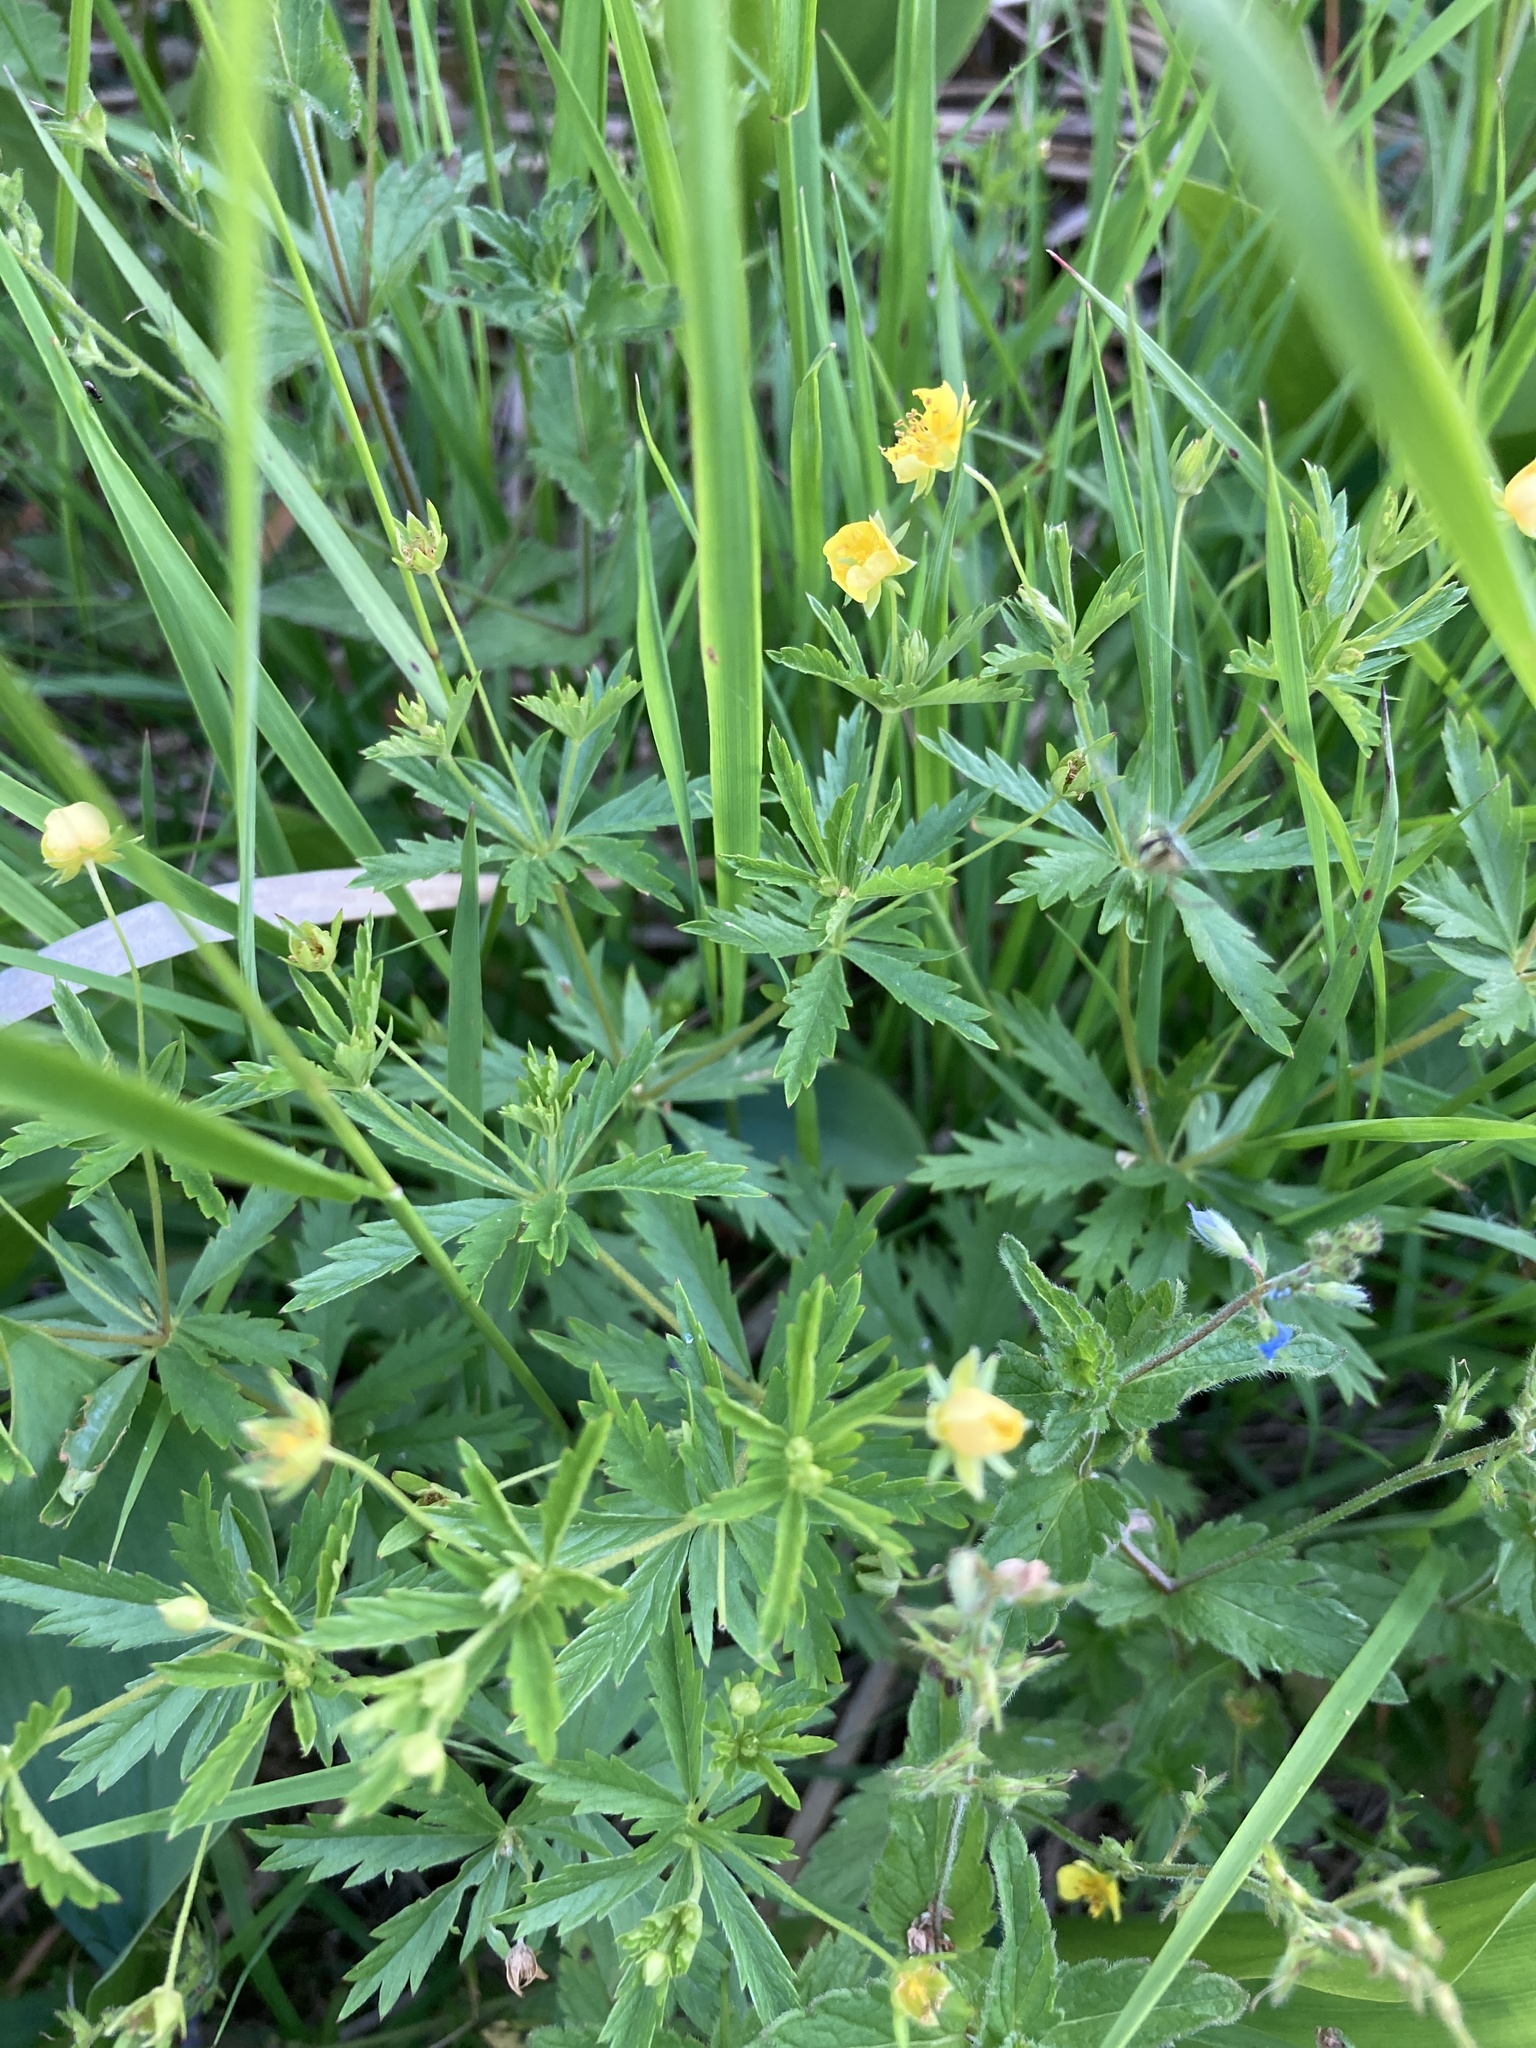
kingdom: Plantae
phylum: Tracheophyta
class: Magnoliopsida
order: Rosales
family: Rosaceae
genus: Potentilla
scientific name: Potentilla erecta
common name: Tormentil
